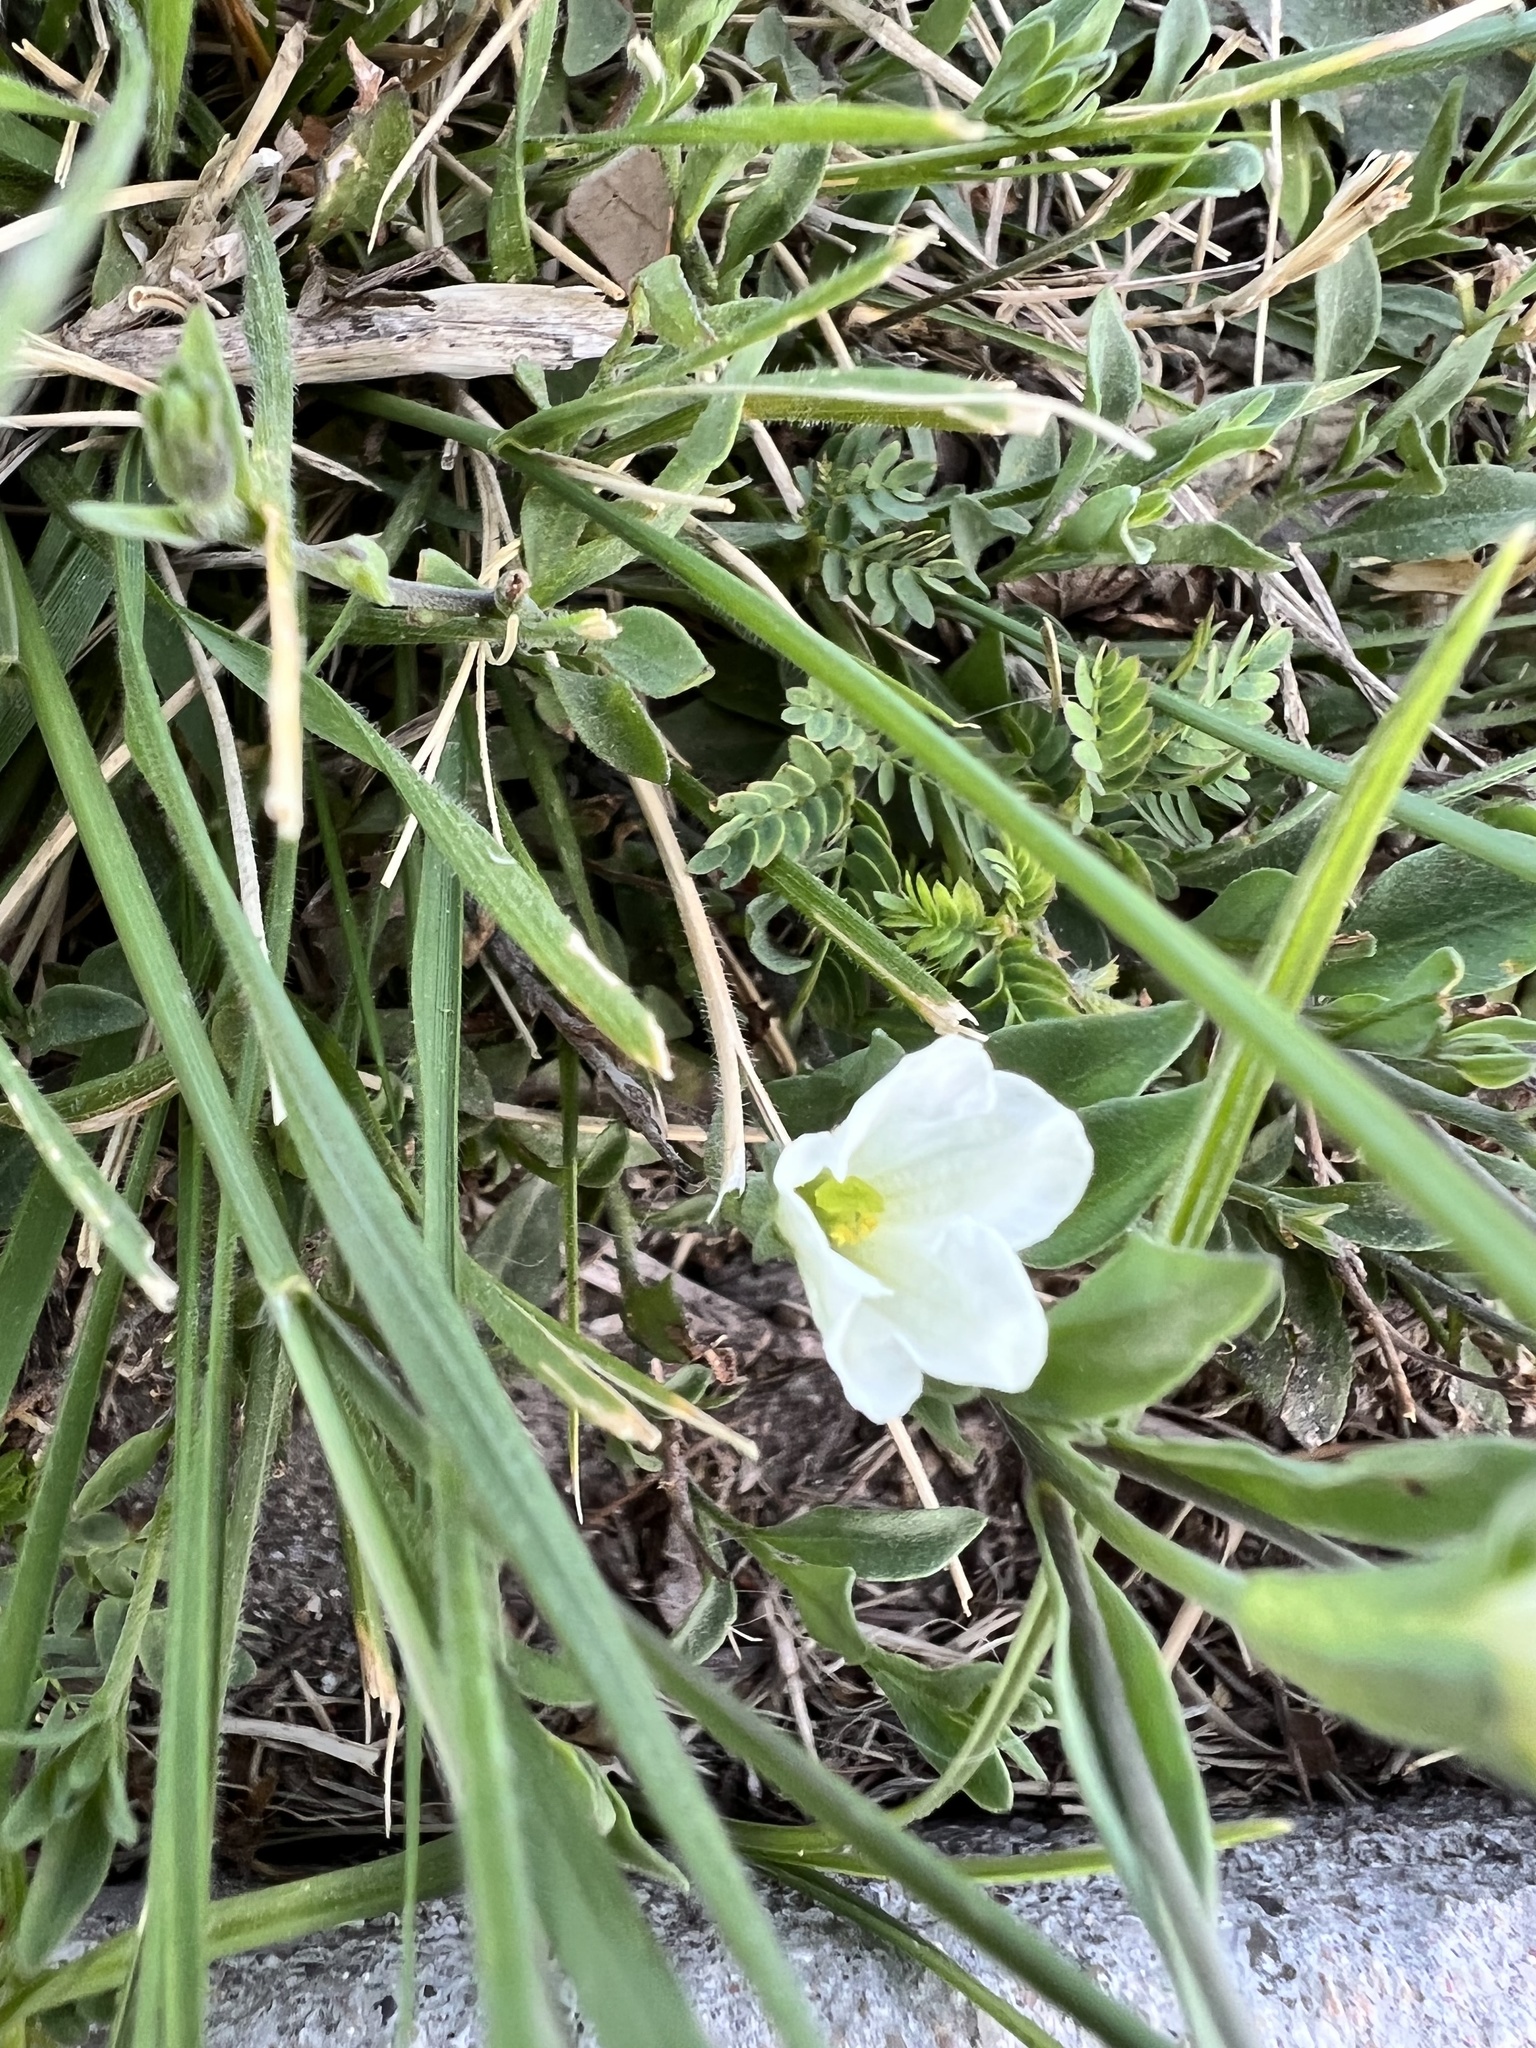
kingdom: Plantae
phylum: Tracheophyta
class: Magnoliopsida
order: Solanales
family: Solanaceae
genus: Salpiglossis
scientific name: Salpiglossis erecta
